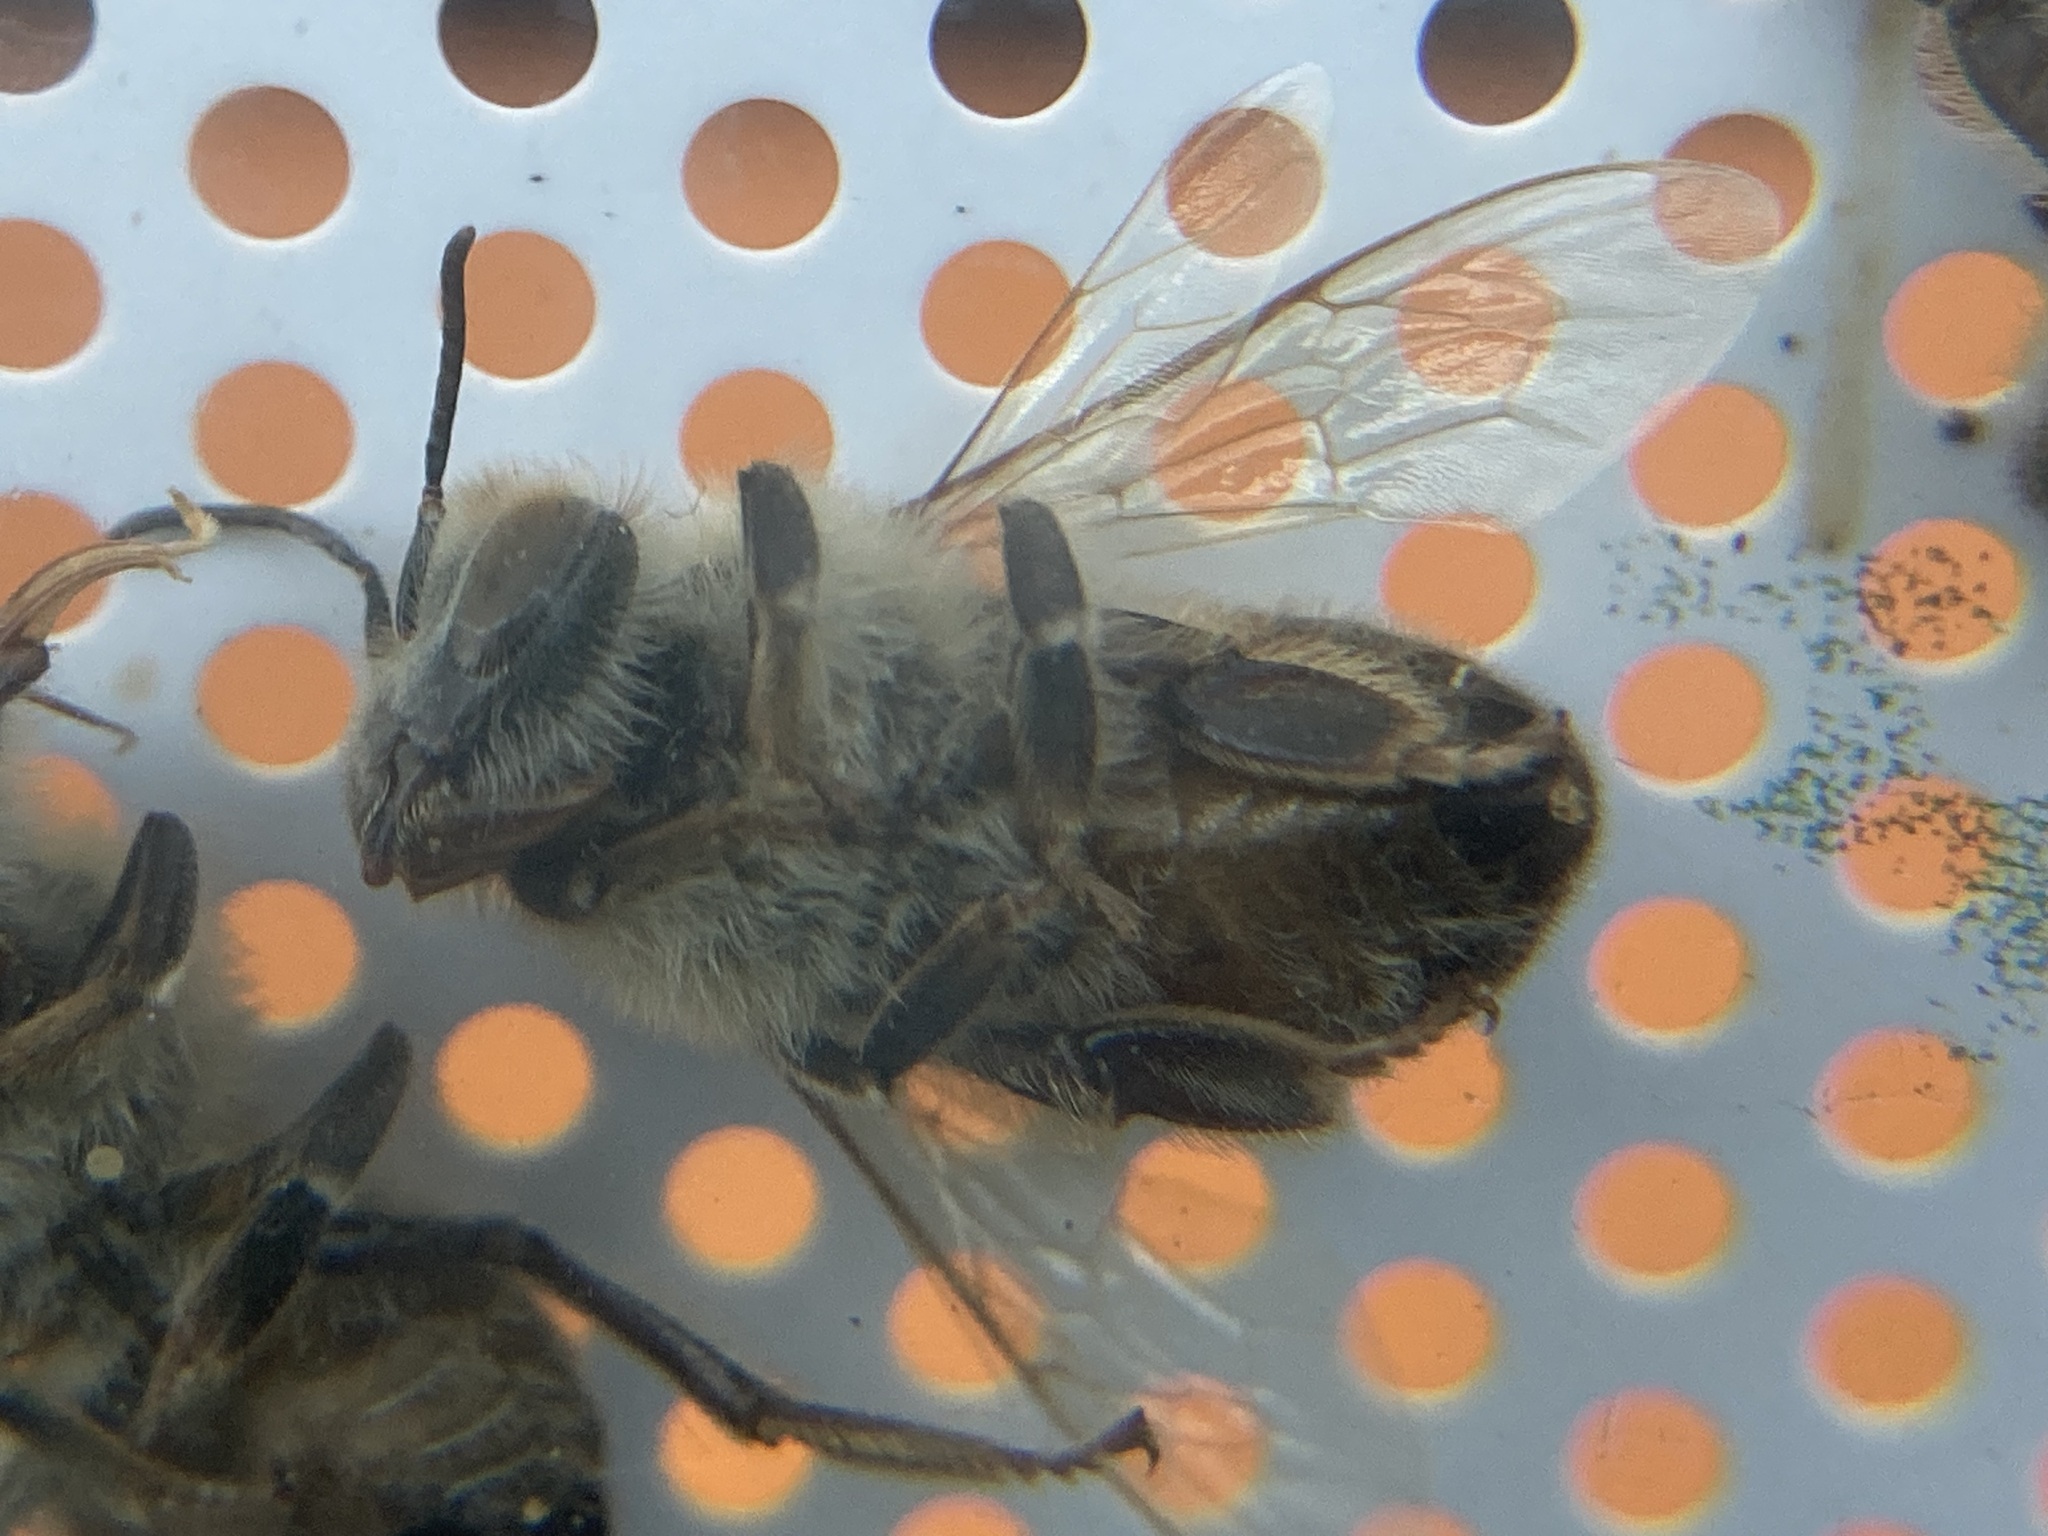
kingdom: Animalia
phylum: Arthropoda
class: Insecta
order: Hymenoptera
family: Apidae
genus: Apis
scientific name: Apis mellifera
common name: Honey bee
